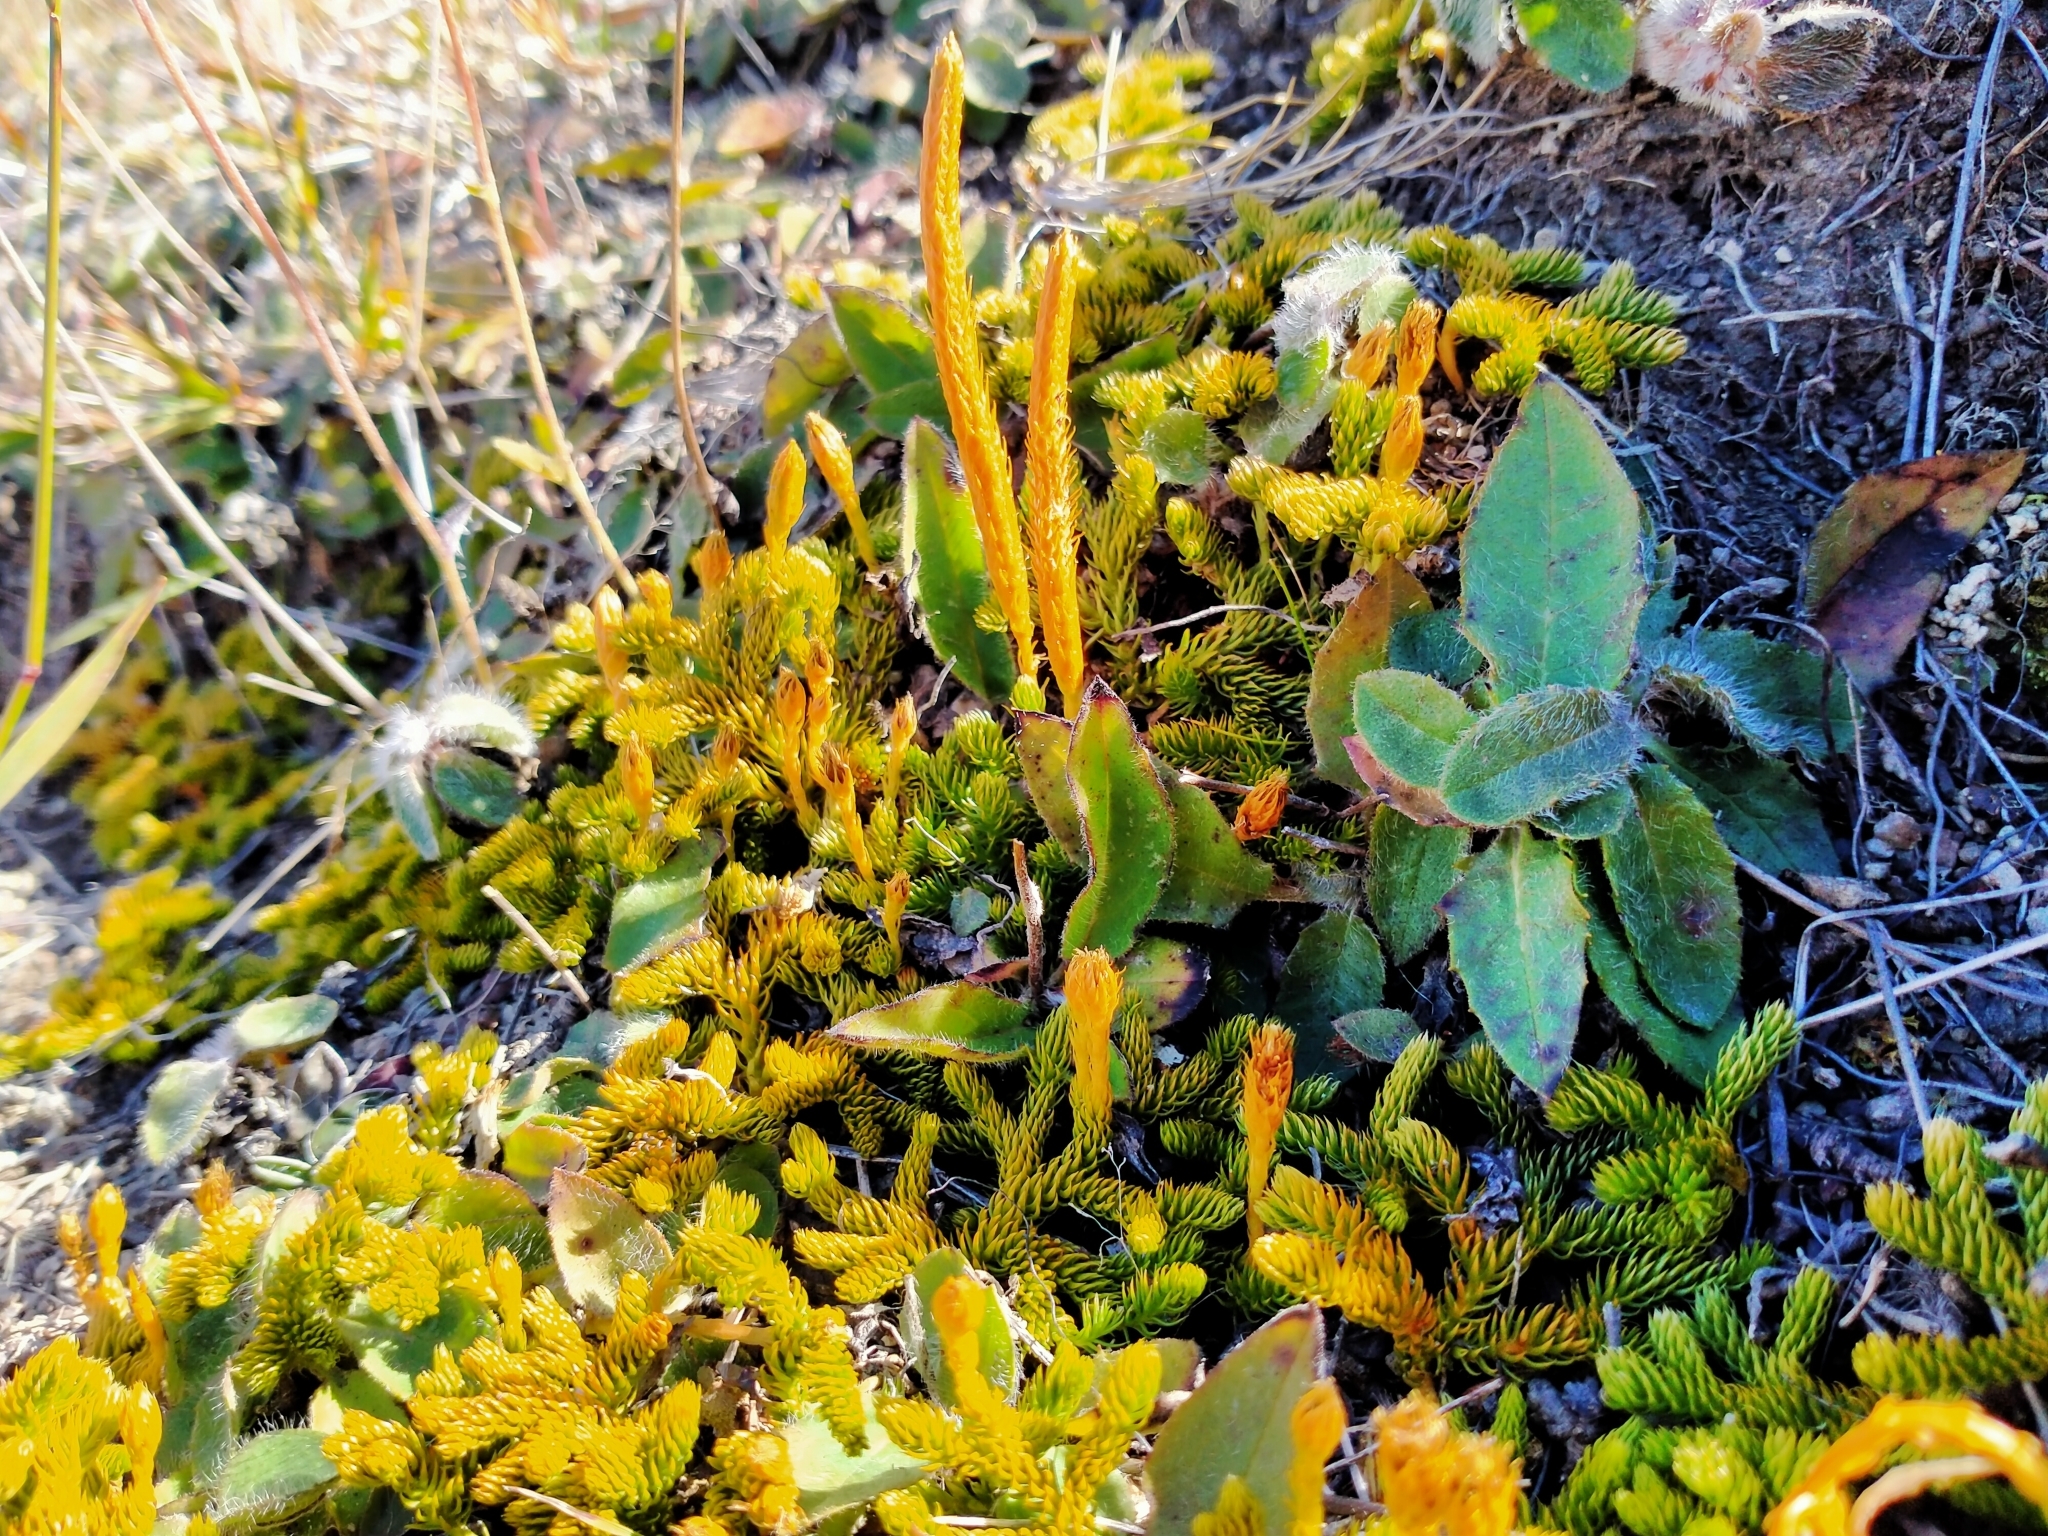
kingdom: Plantae
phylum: Tracheophyta
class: Lycopodiopsida
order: Lycopodiales
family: Lycopodiaceae
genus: Austrolycopodium
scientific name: Austrolycopodium fastigiatum
